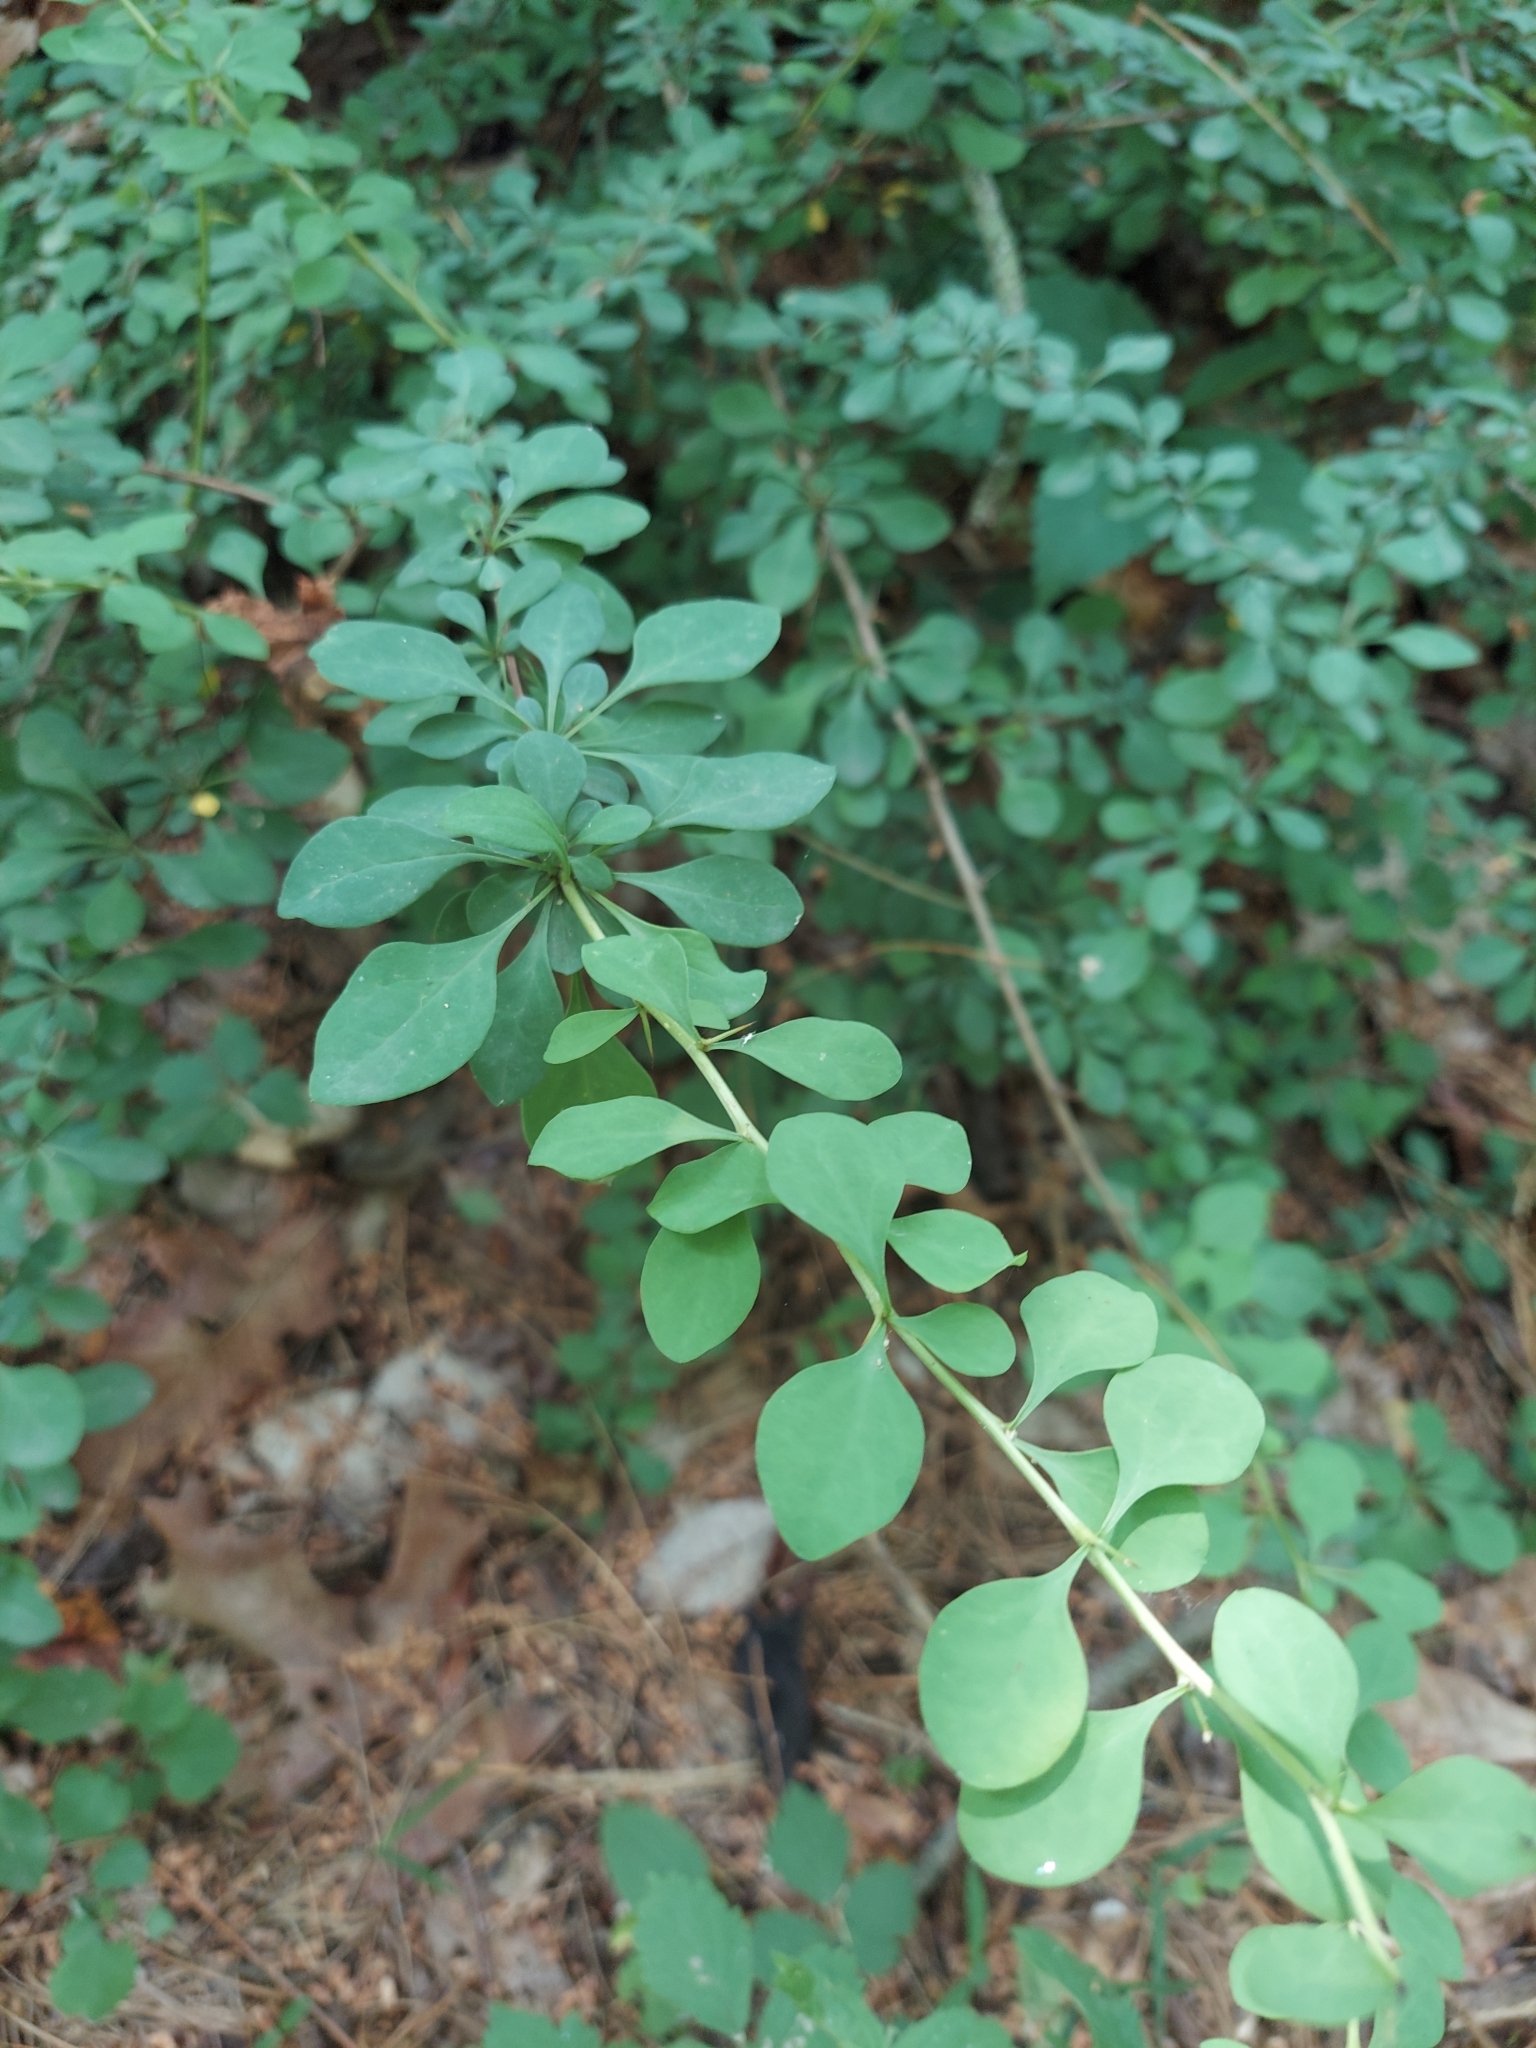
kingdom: Plantae
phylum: Tracheophyta
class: Magnoliopsida
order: Ranunculales
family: Berberidaceae
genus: Berberis
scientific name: Berberis thunbergii
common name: Japanese barberry
